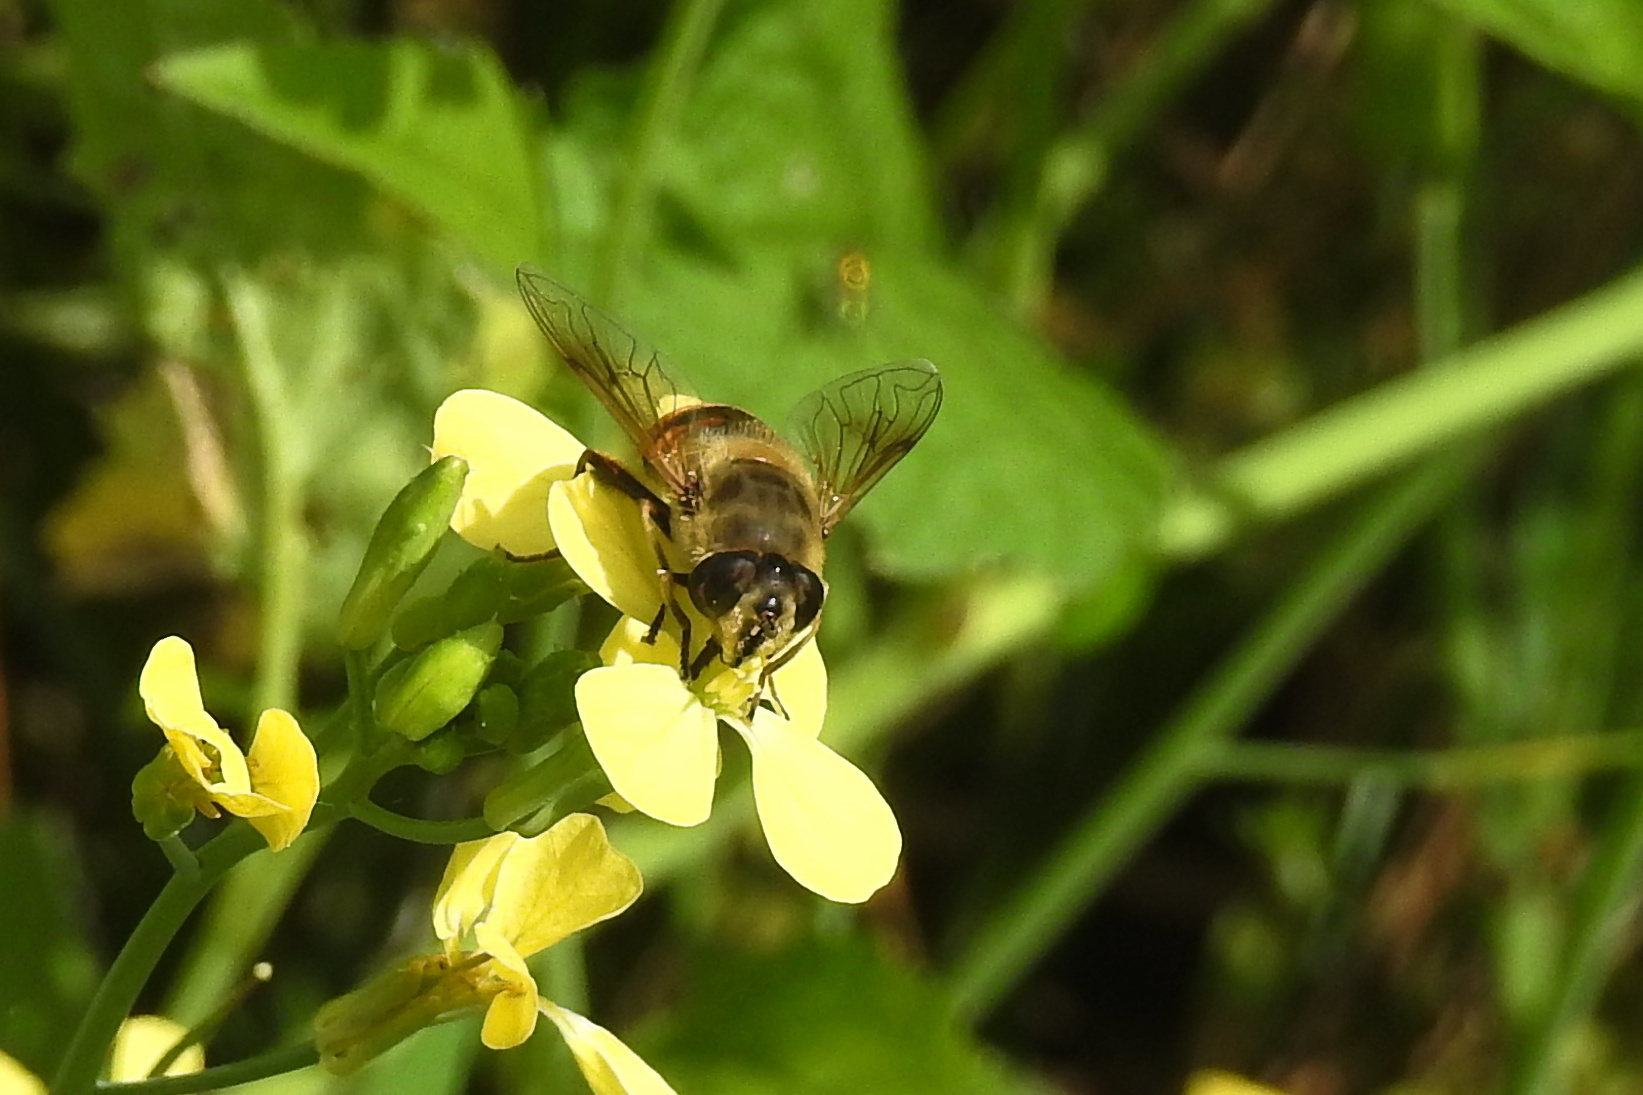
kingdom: Animalia
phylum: Arthropoda
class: Insecta
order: Diptera
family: Syrphidae
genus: Eristalis
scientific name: Eristalis tenax
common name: Drone fly
